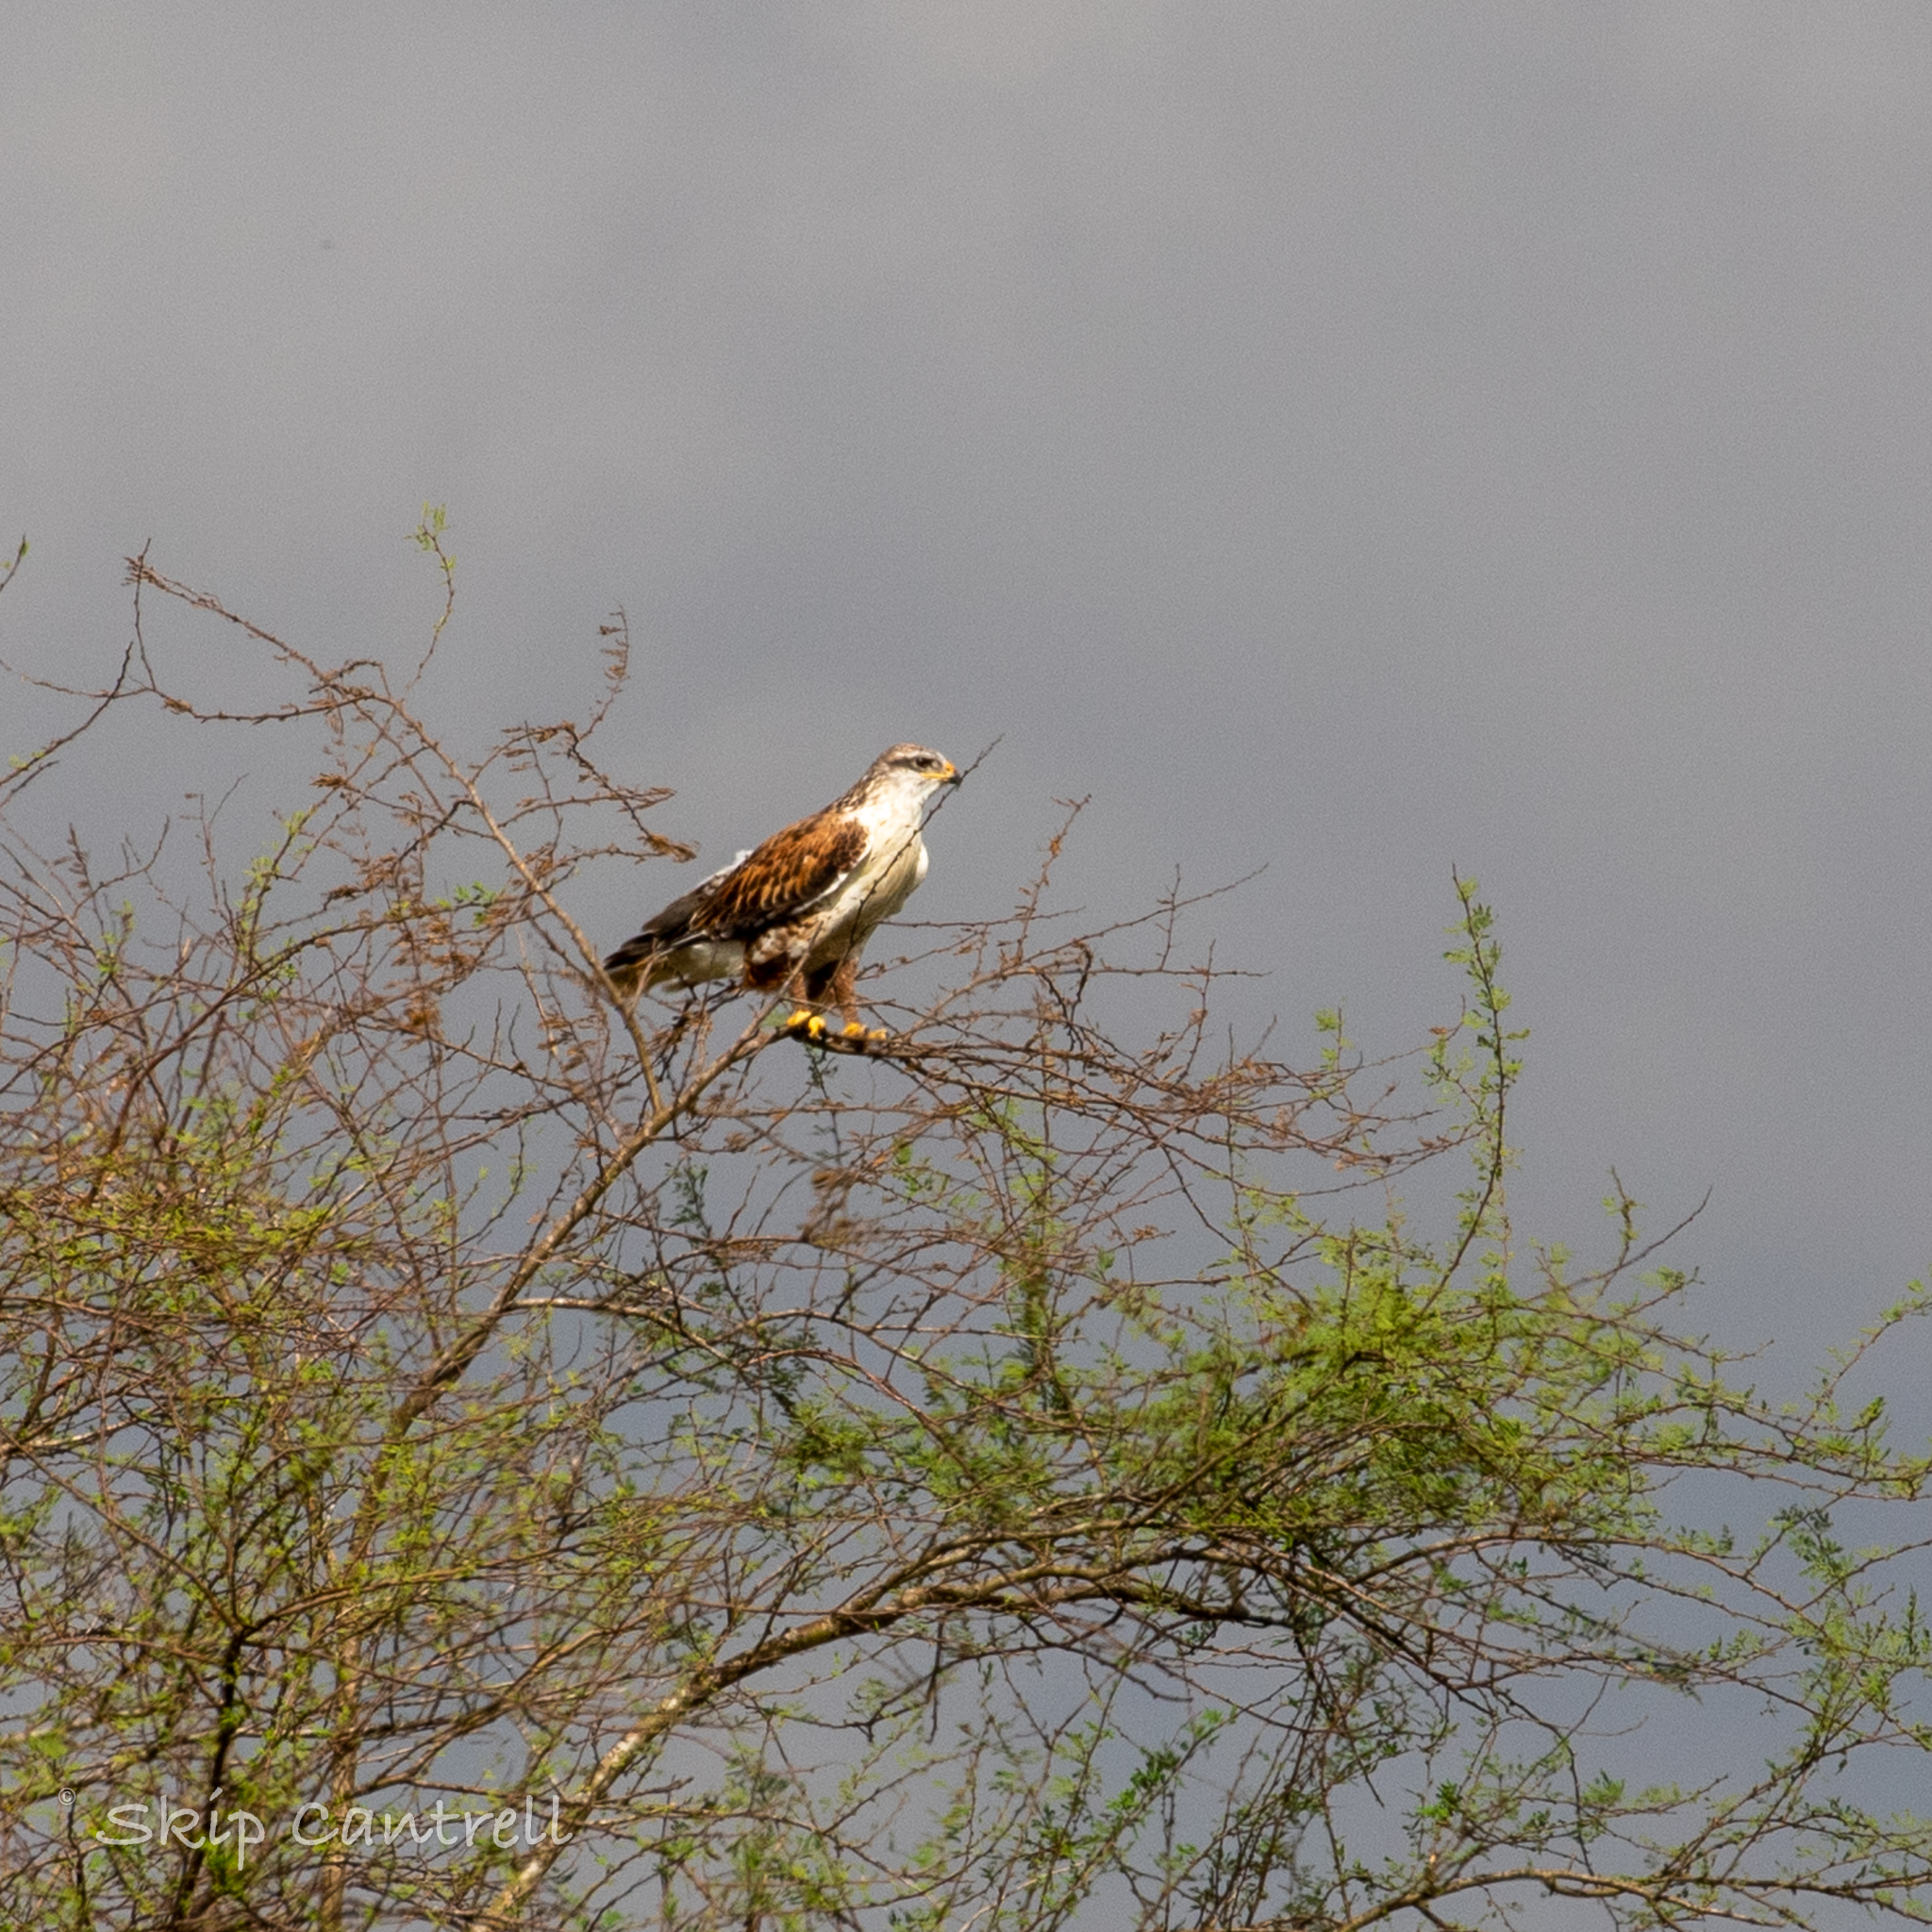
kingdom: Animalia
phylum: Chordata
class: Aves
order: Accipitriformes
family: Accipitridae
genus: Buteo
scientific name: Buteo regalis
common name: Ferruginous hawk
